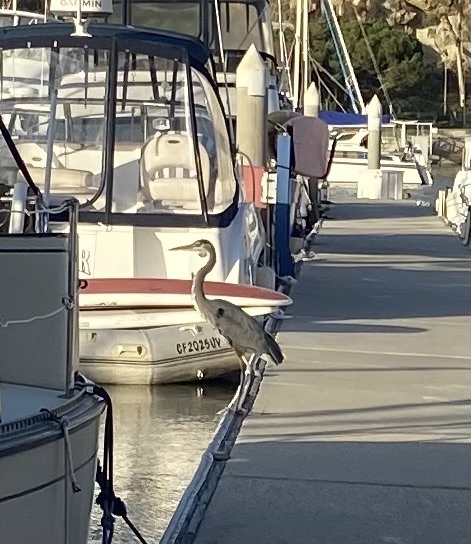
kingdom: Animalia
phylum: Chordata
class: Aves
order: Pelecaniformes
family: Ardeidae
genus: Ardea
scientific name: Ardea herodias
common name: Great blue heron
